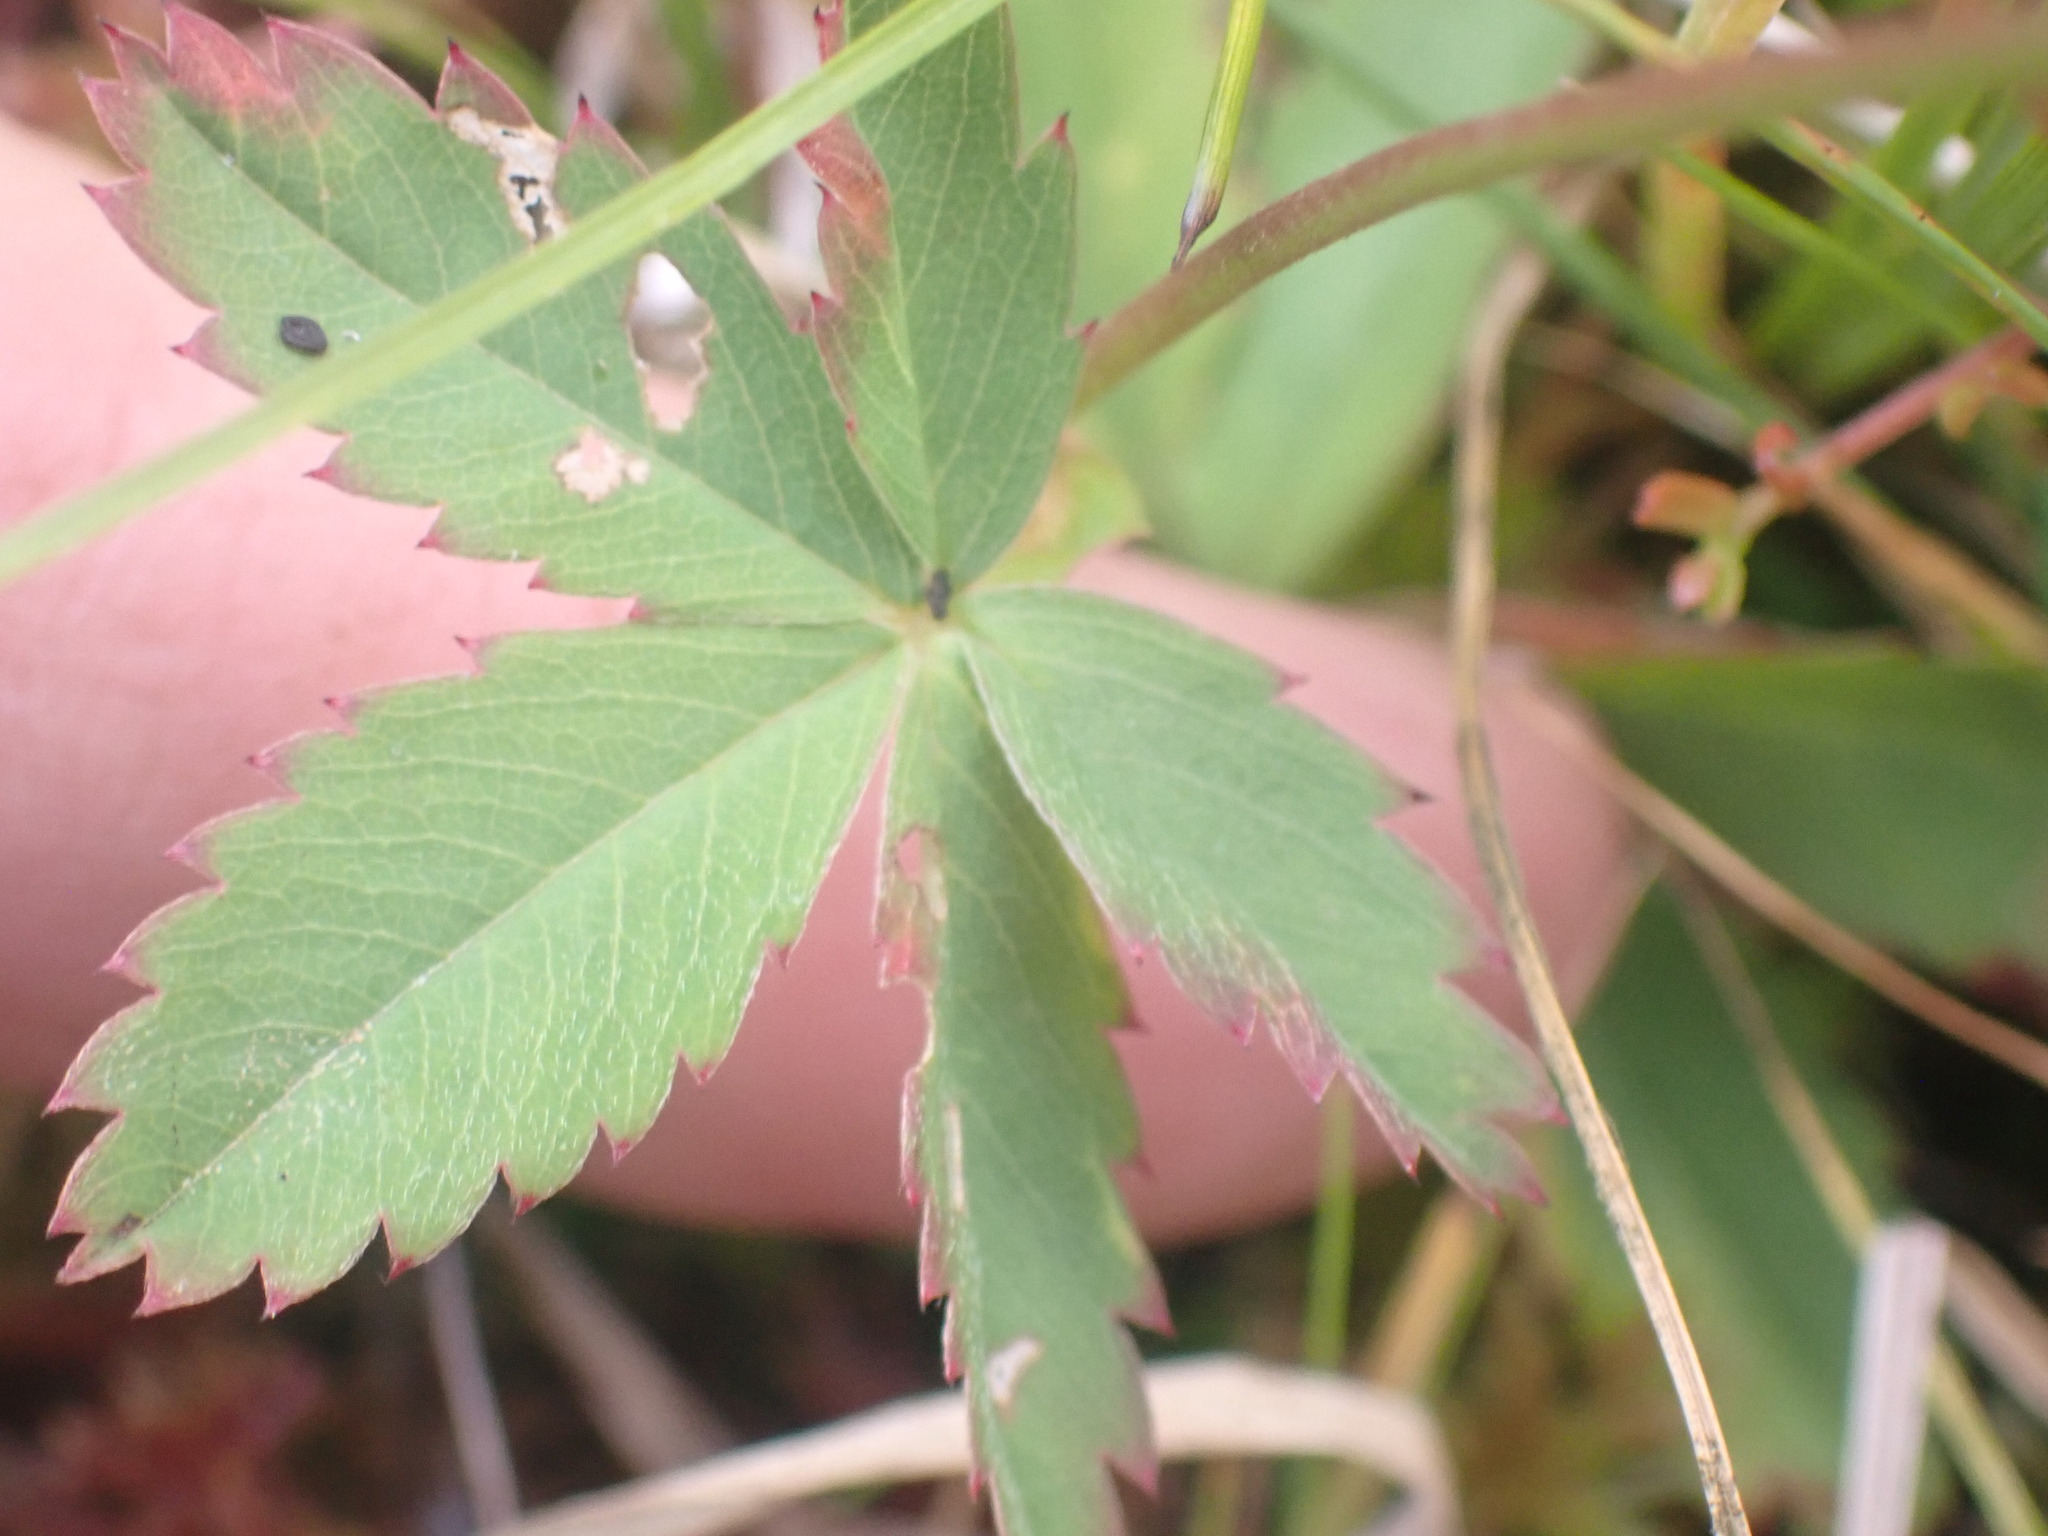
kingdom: Plantae
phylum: Tracheophyta
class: Magnoliopsida
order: Rosales
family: Rosaceae
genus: Comarum
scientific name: Comarum palustre
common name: Marsh cinquefoil
